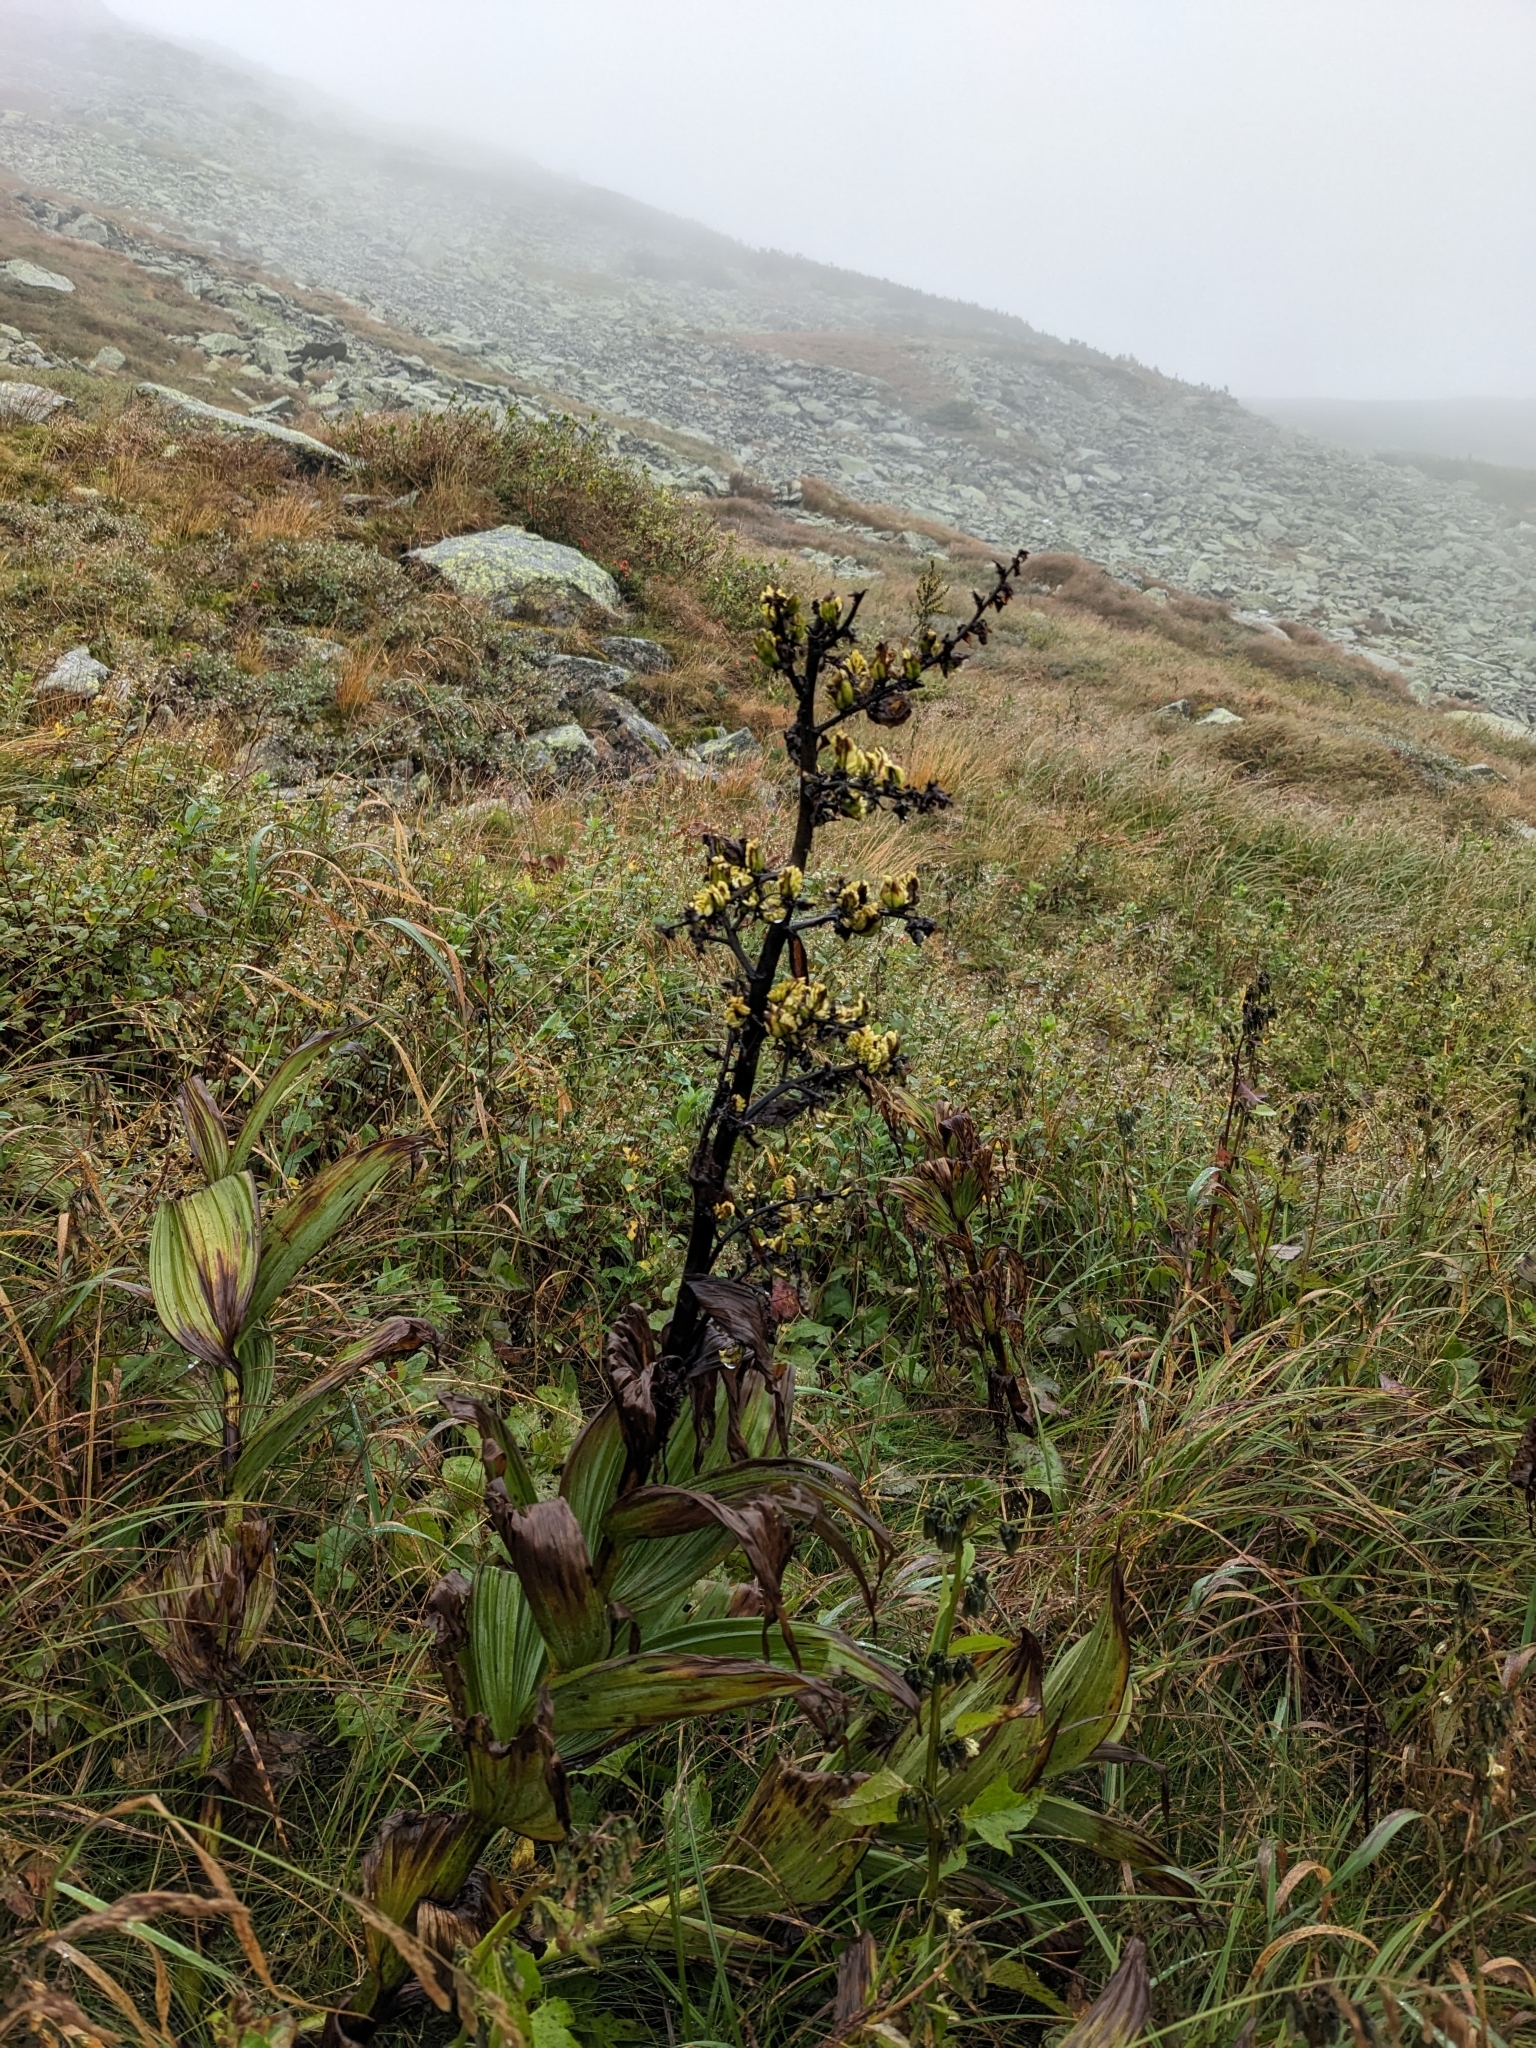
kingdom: Plantae
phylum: Tracheophyta
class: Liliopsida
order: Liliales
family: Melanthiaceae
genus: Veratrum
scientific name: Veratrum viride
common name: American false hellebore
